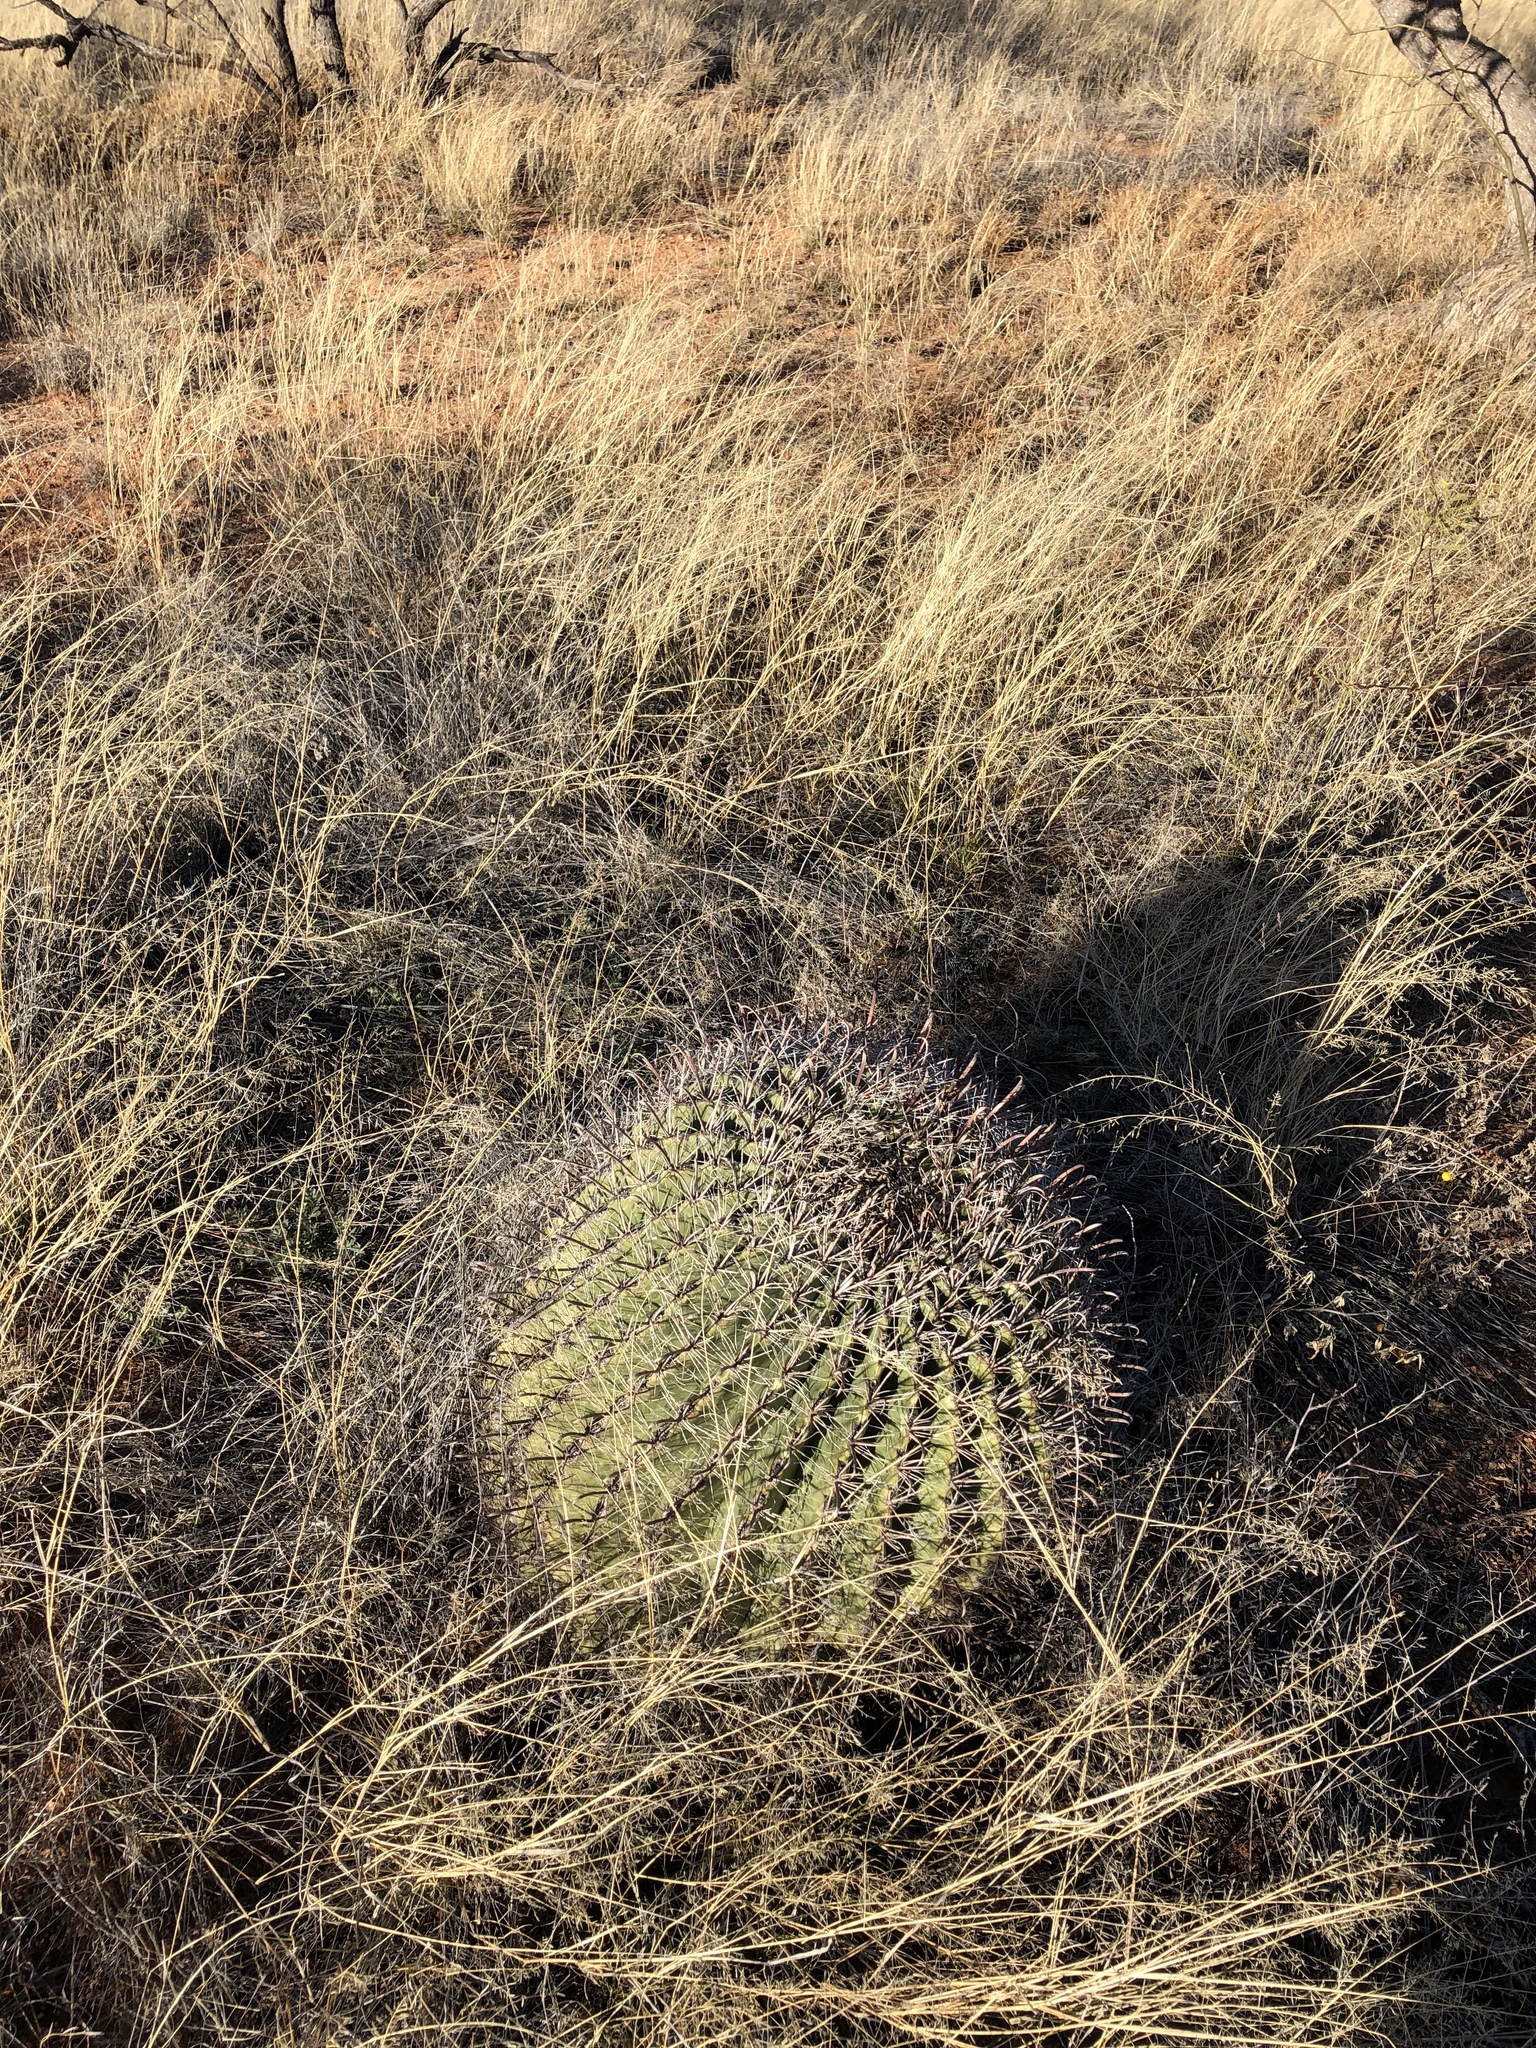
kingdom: Plantae
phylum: Tracheophyta
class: Magnoliopsida
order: Caryophyllales
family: Cactaceae
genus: Ferocactus
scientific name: Ferocactus wislizeni
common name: Candy barrel cactus
